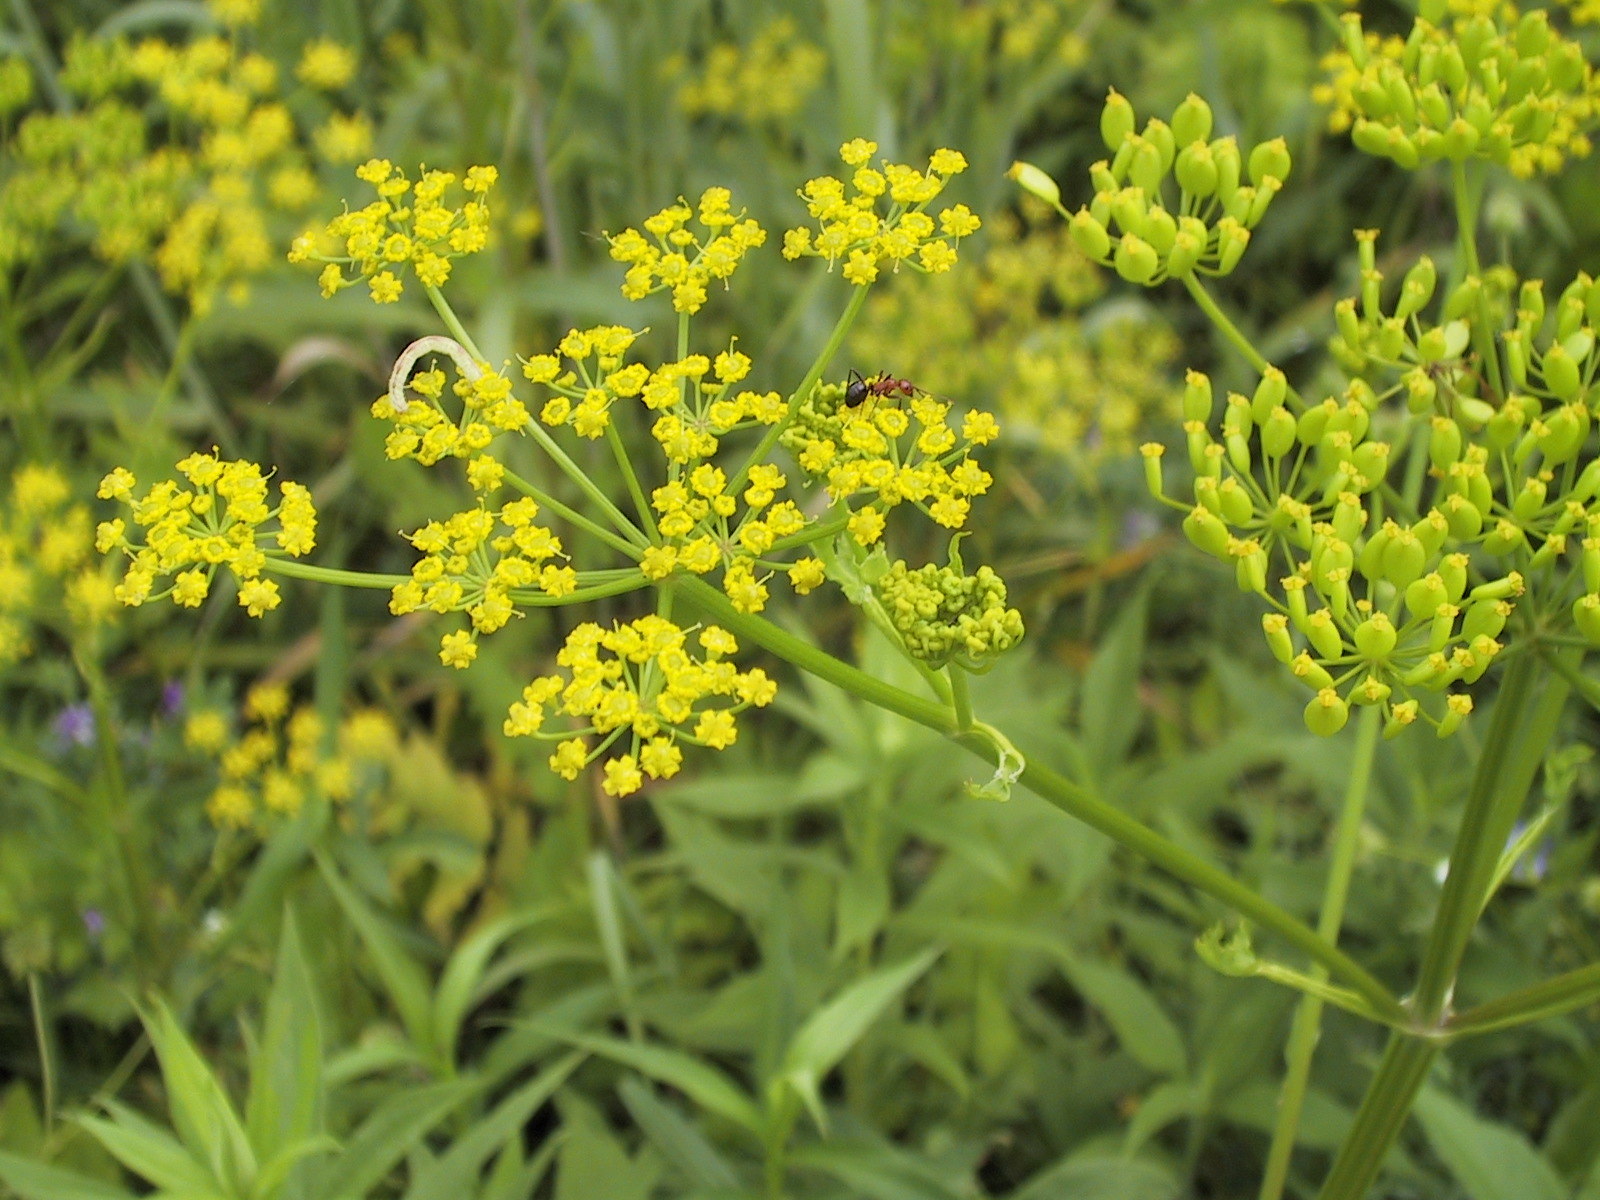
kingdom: Plantae
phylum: Tracheophyta
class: Magnoliopsida
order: Apiales
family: Apiaceae
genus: Pastinaca
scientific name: Pastinaca sativa
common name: Wild parsnip
